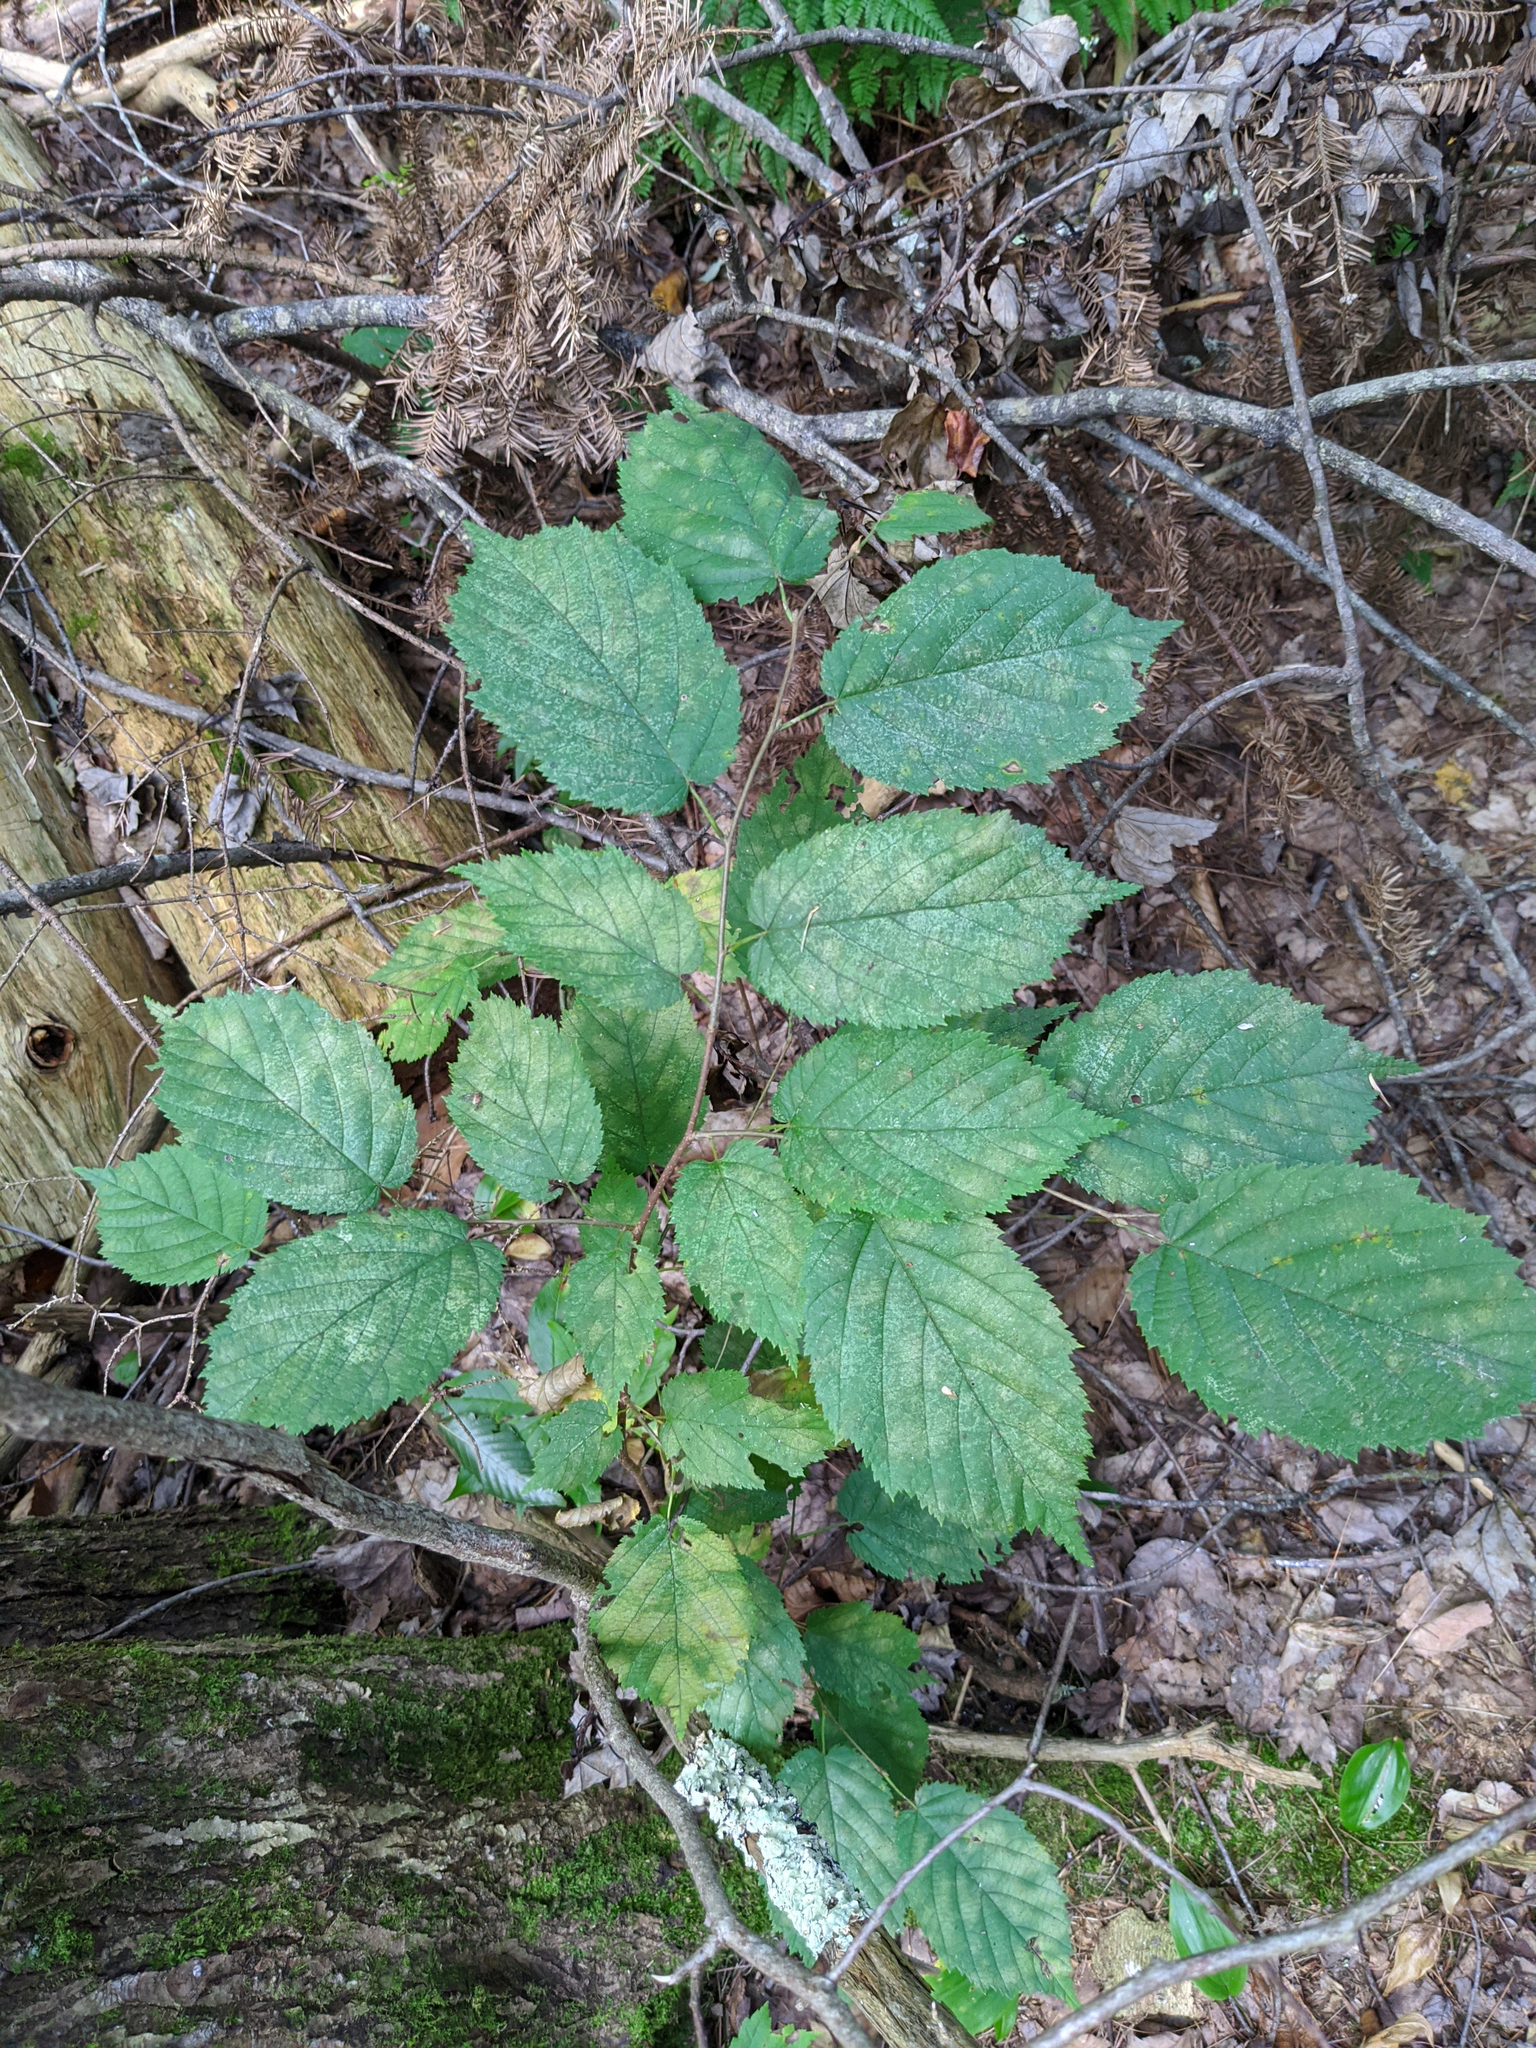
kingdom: Plantae
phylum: Tracheophyta
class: Magnoliopsida
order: Fagales
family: Betulaceae
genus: Corylus
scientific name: Corylus cornuta
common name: Beaked hazel
